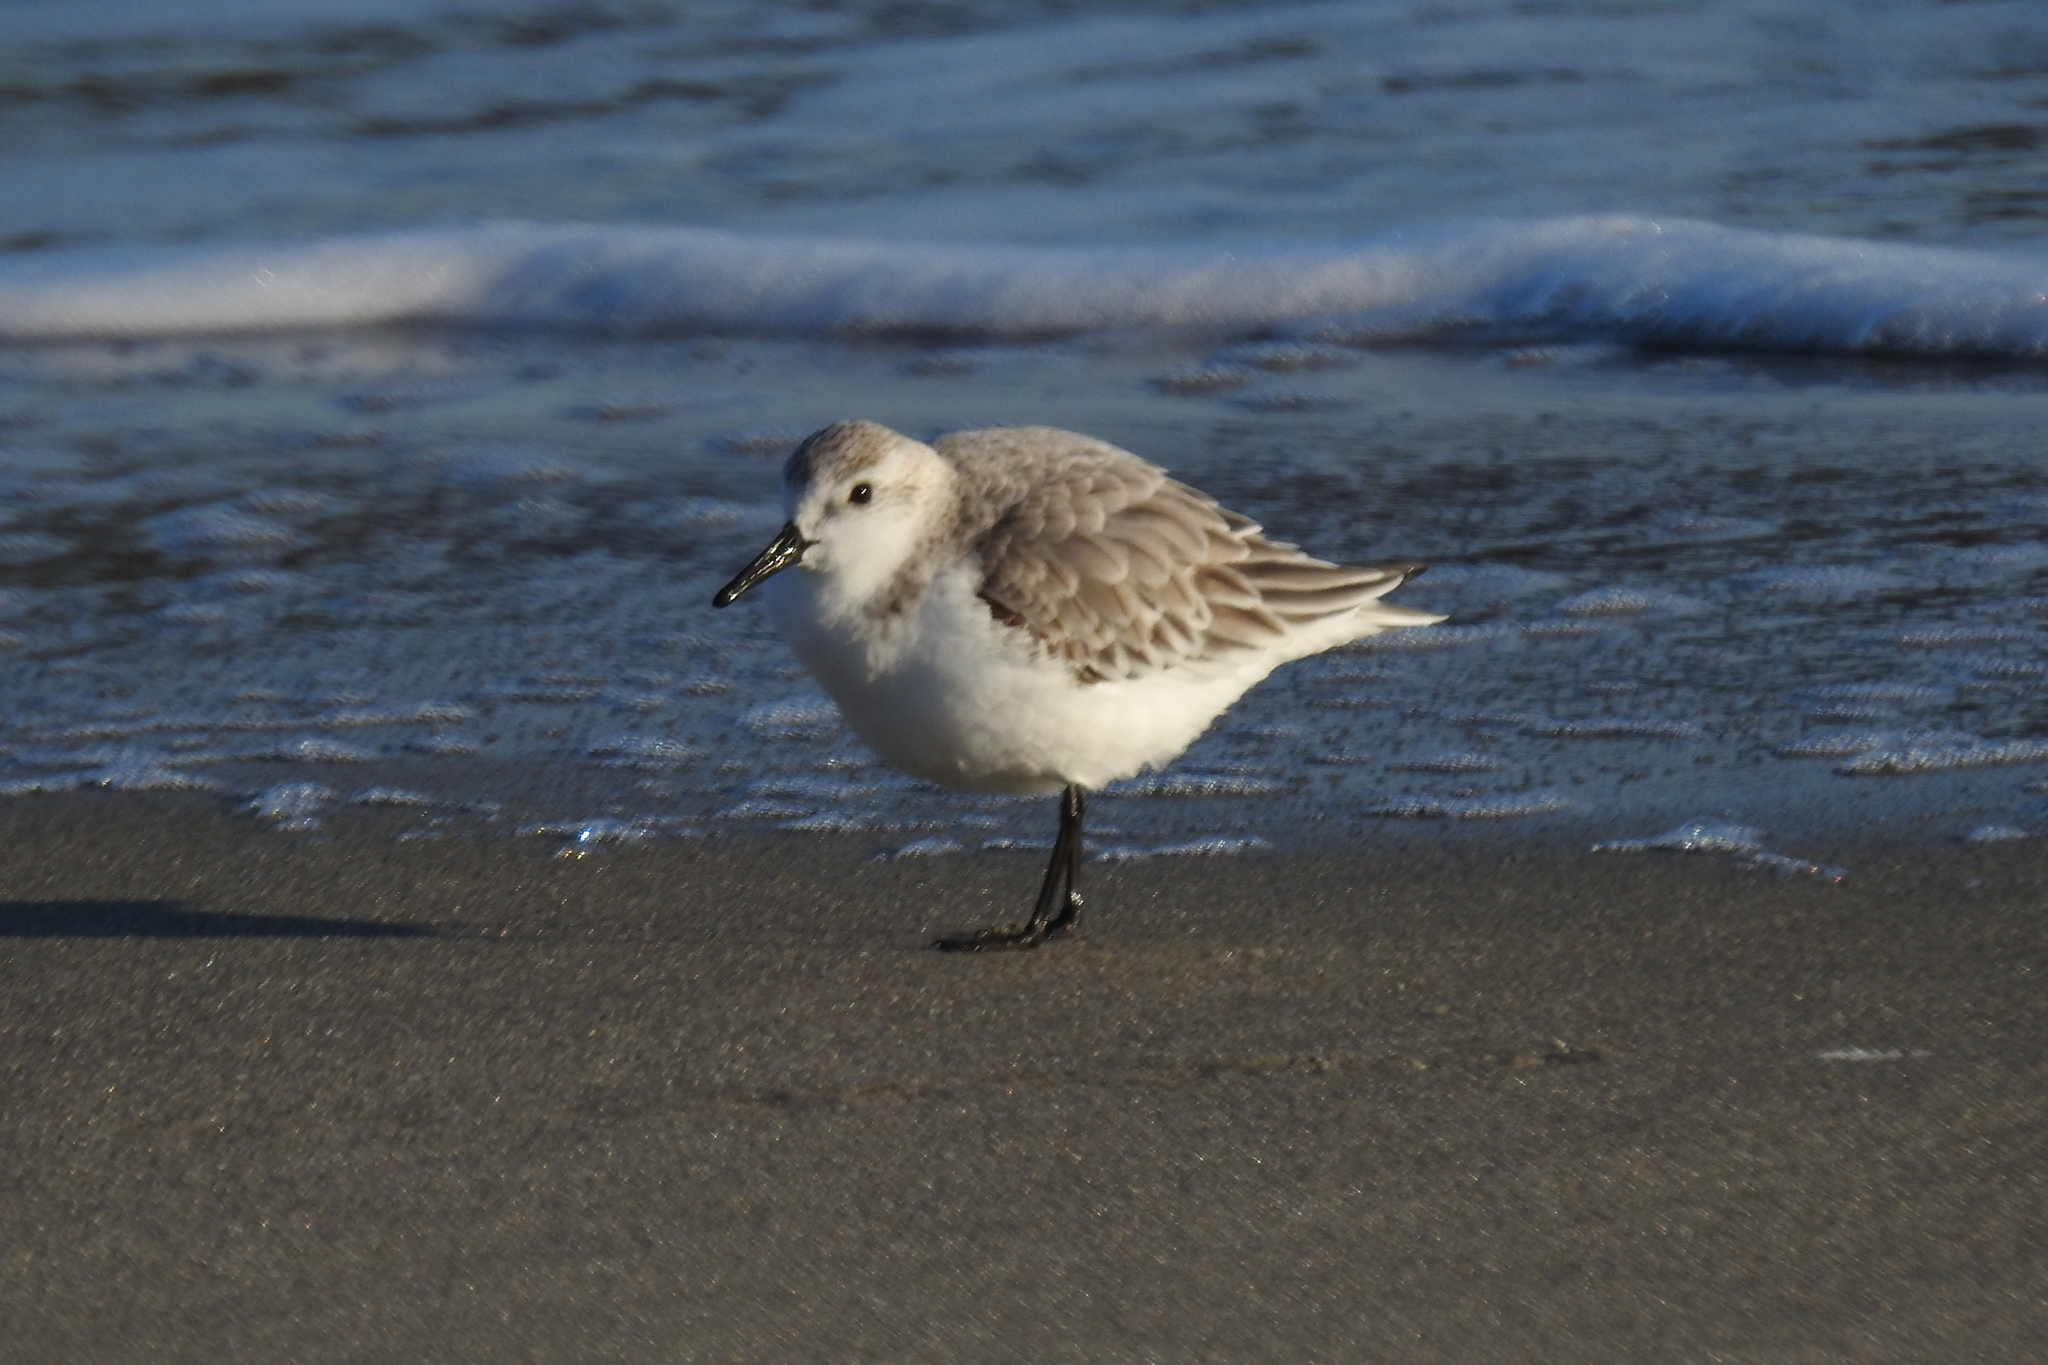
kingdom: Animalia
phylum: Chordata
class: Aves
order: Charadriiformes
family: Scolopacidae
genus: Calidris
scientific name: Calidris alba
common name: Sanderling
